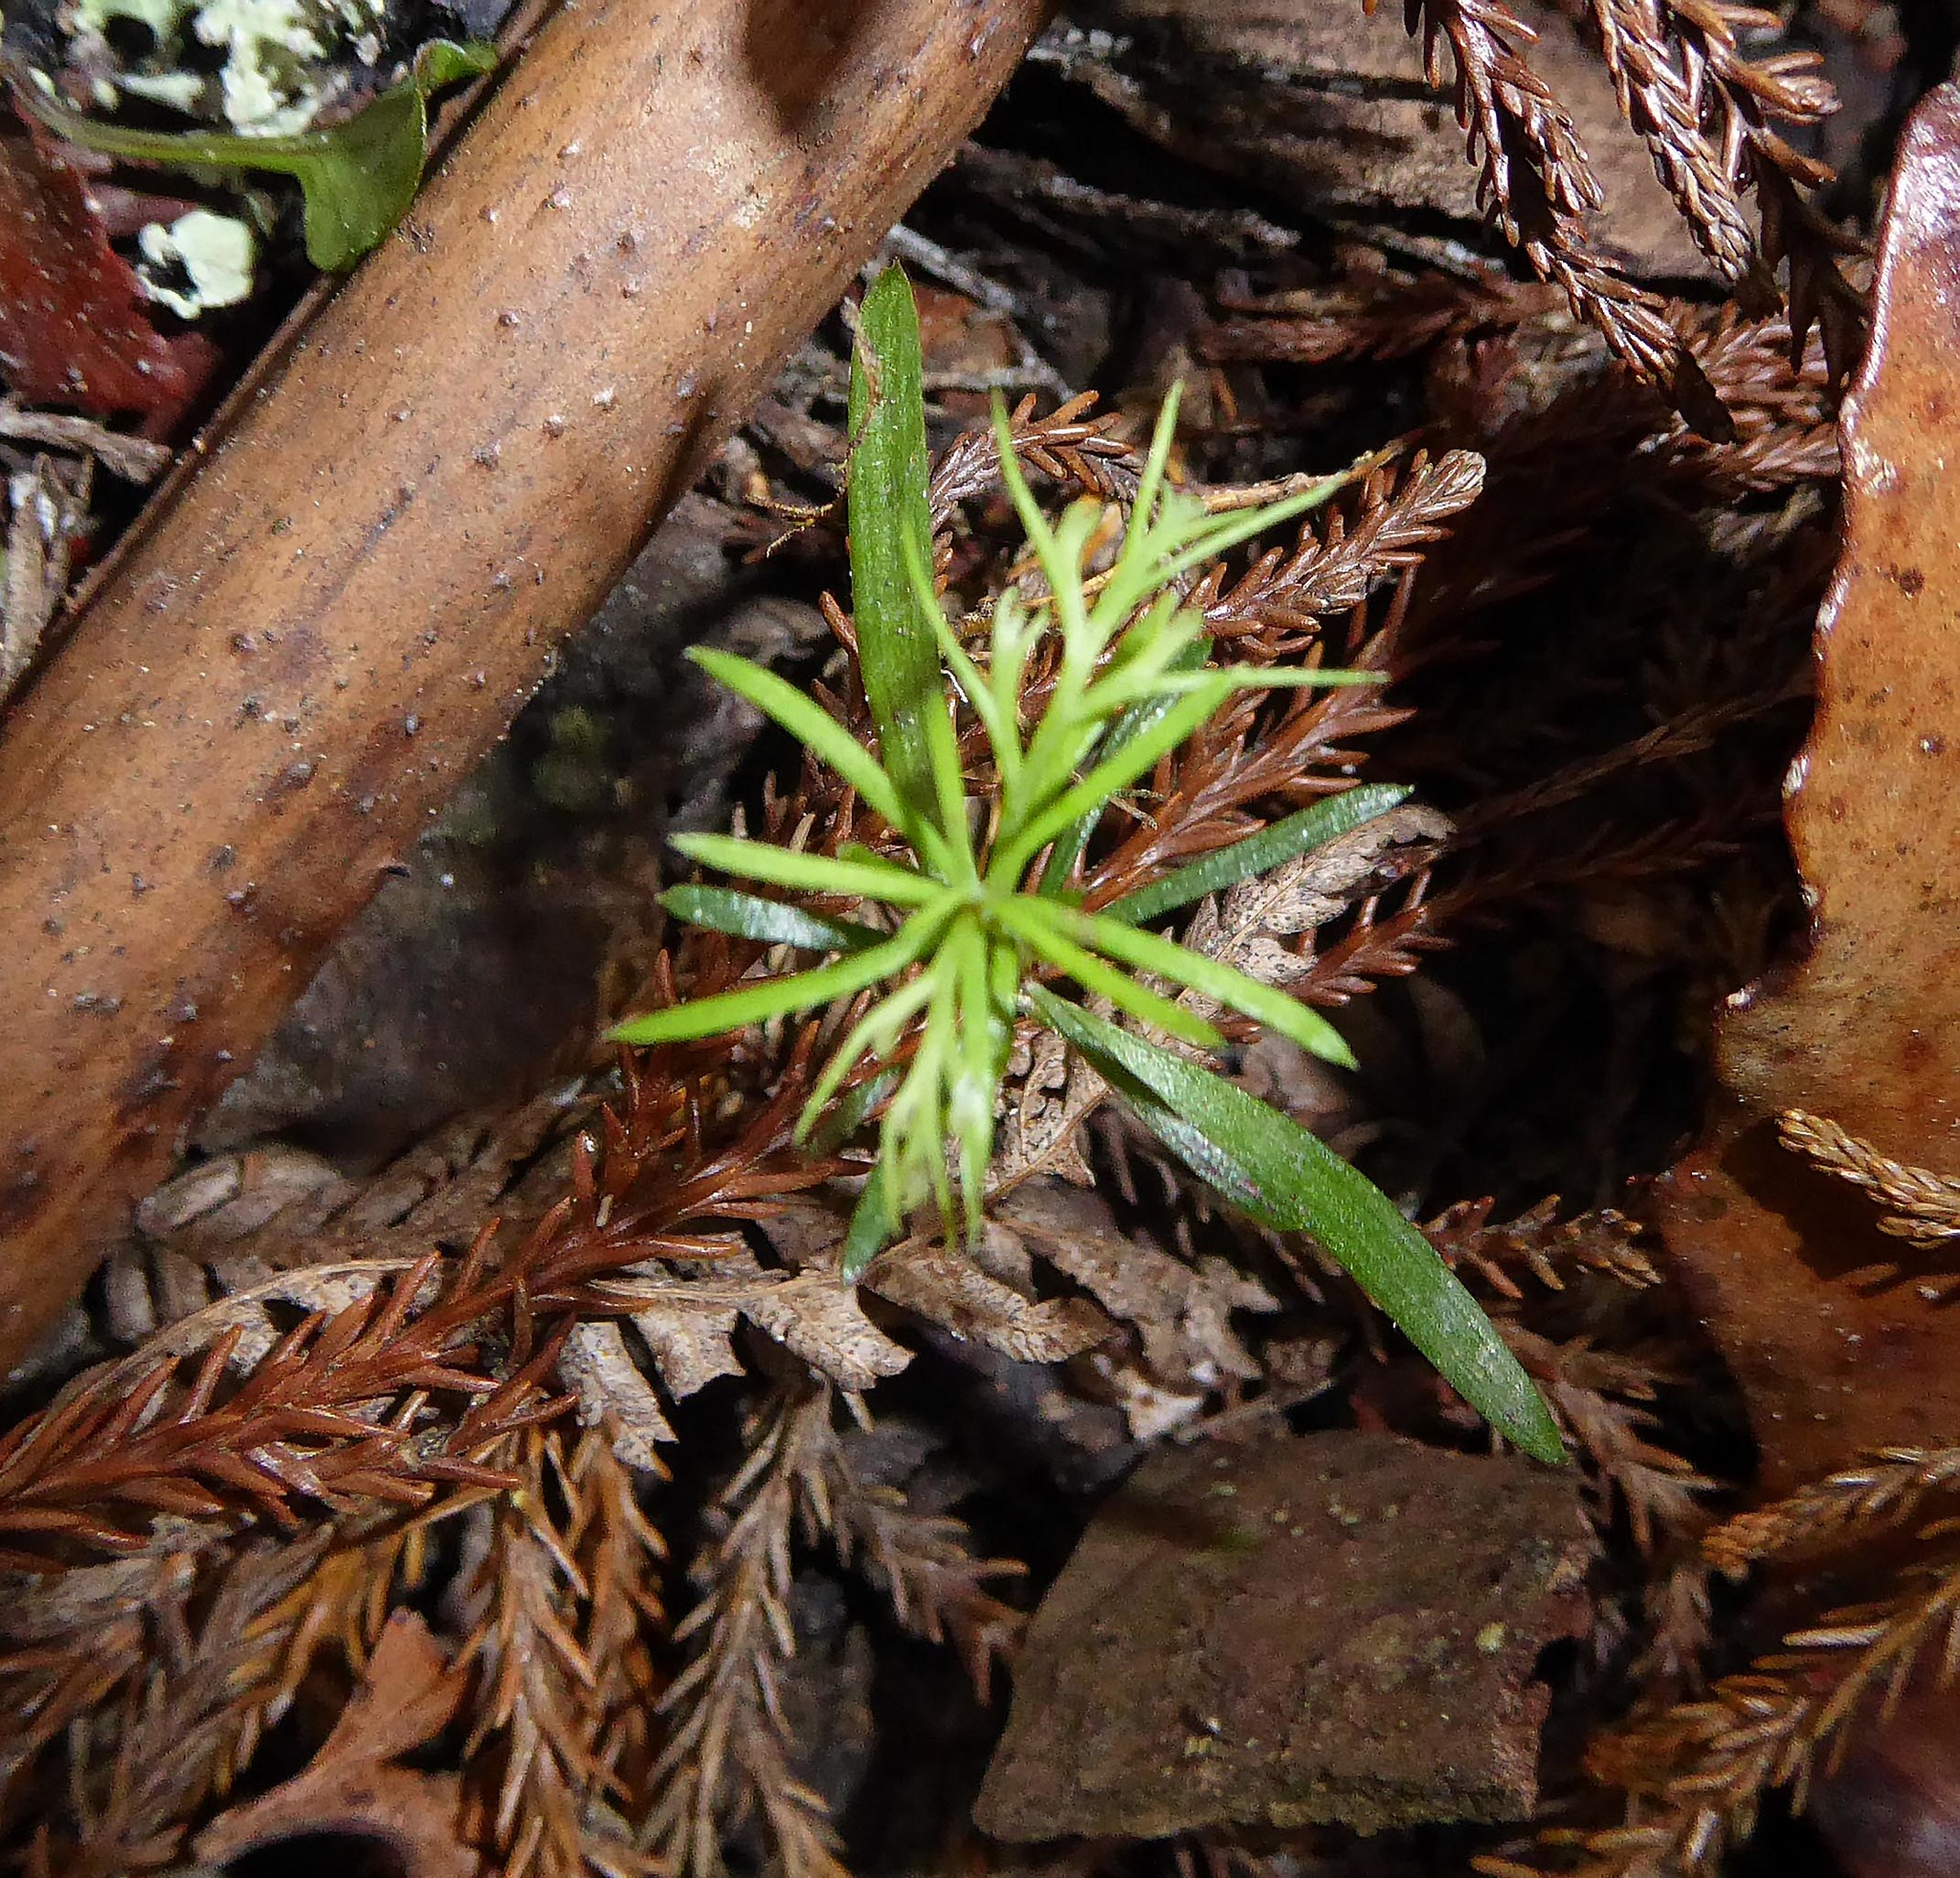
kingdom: Plantae
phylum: Tracheophyta
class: Pinopsida
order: Pinales
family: Phyllocladaceae
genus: Phyllocladus
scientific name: Phyllocladus trichomanoides
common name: Celery pine
